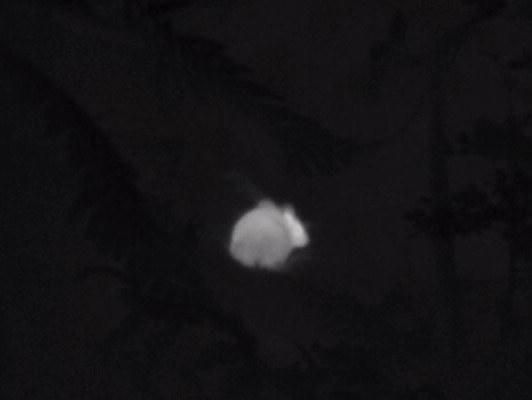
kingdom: Animalia
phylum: Chordata
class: Mammalia
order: Rodentia
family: Muridae
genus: Mus
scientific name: Mus musculus
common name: House mouse
